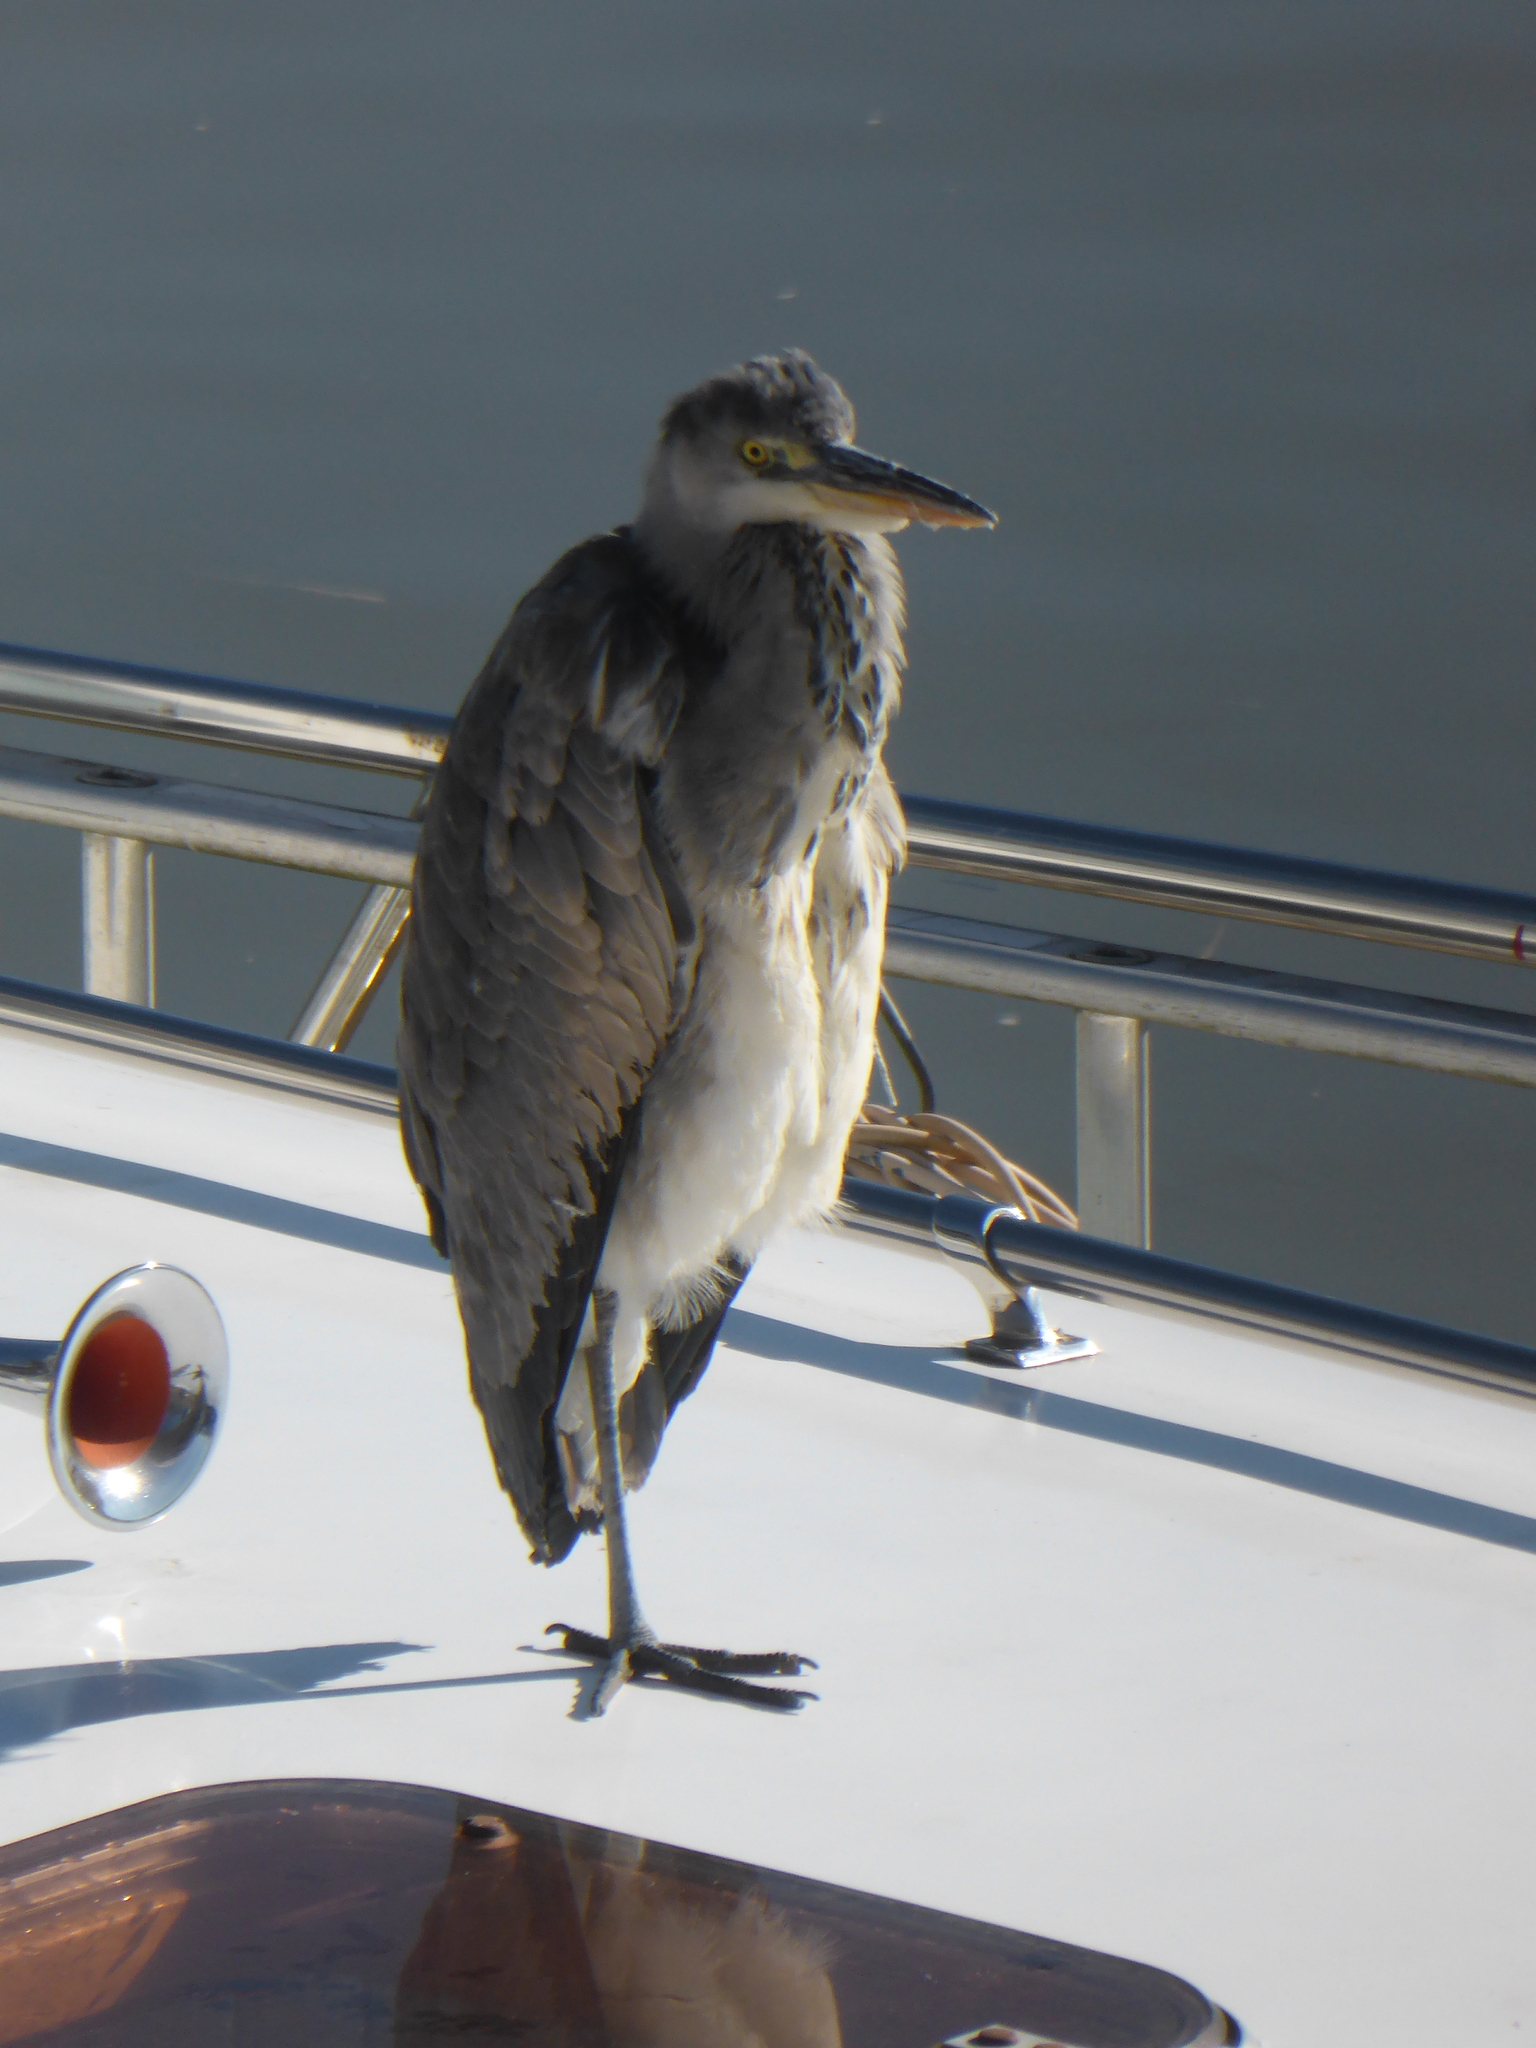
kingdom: Animalia
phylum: Chordata
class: Aves
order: Pelecaniformes
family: Ardeidae
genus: Ardea
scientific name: Ardea cinerea
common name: Grey heron
